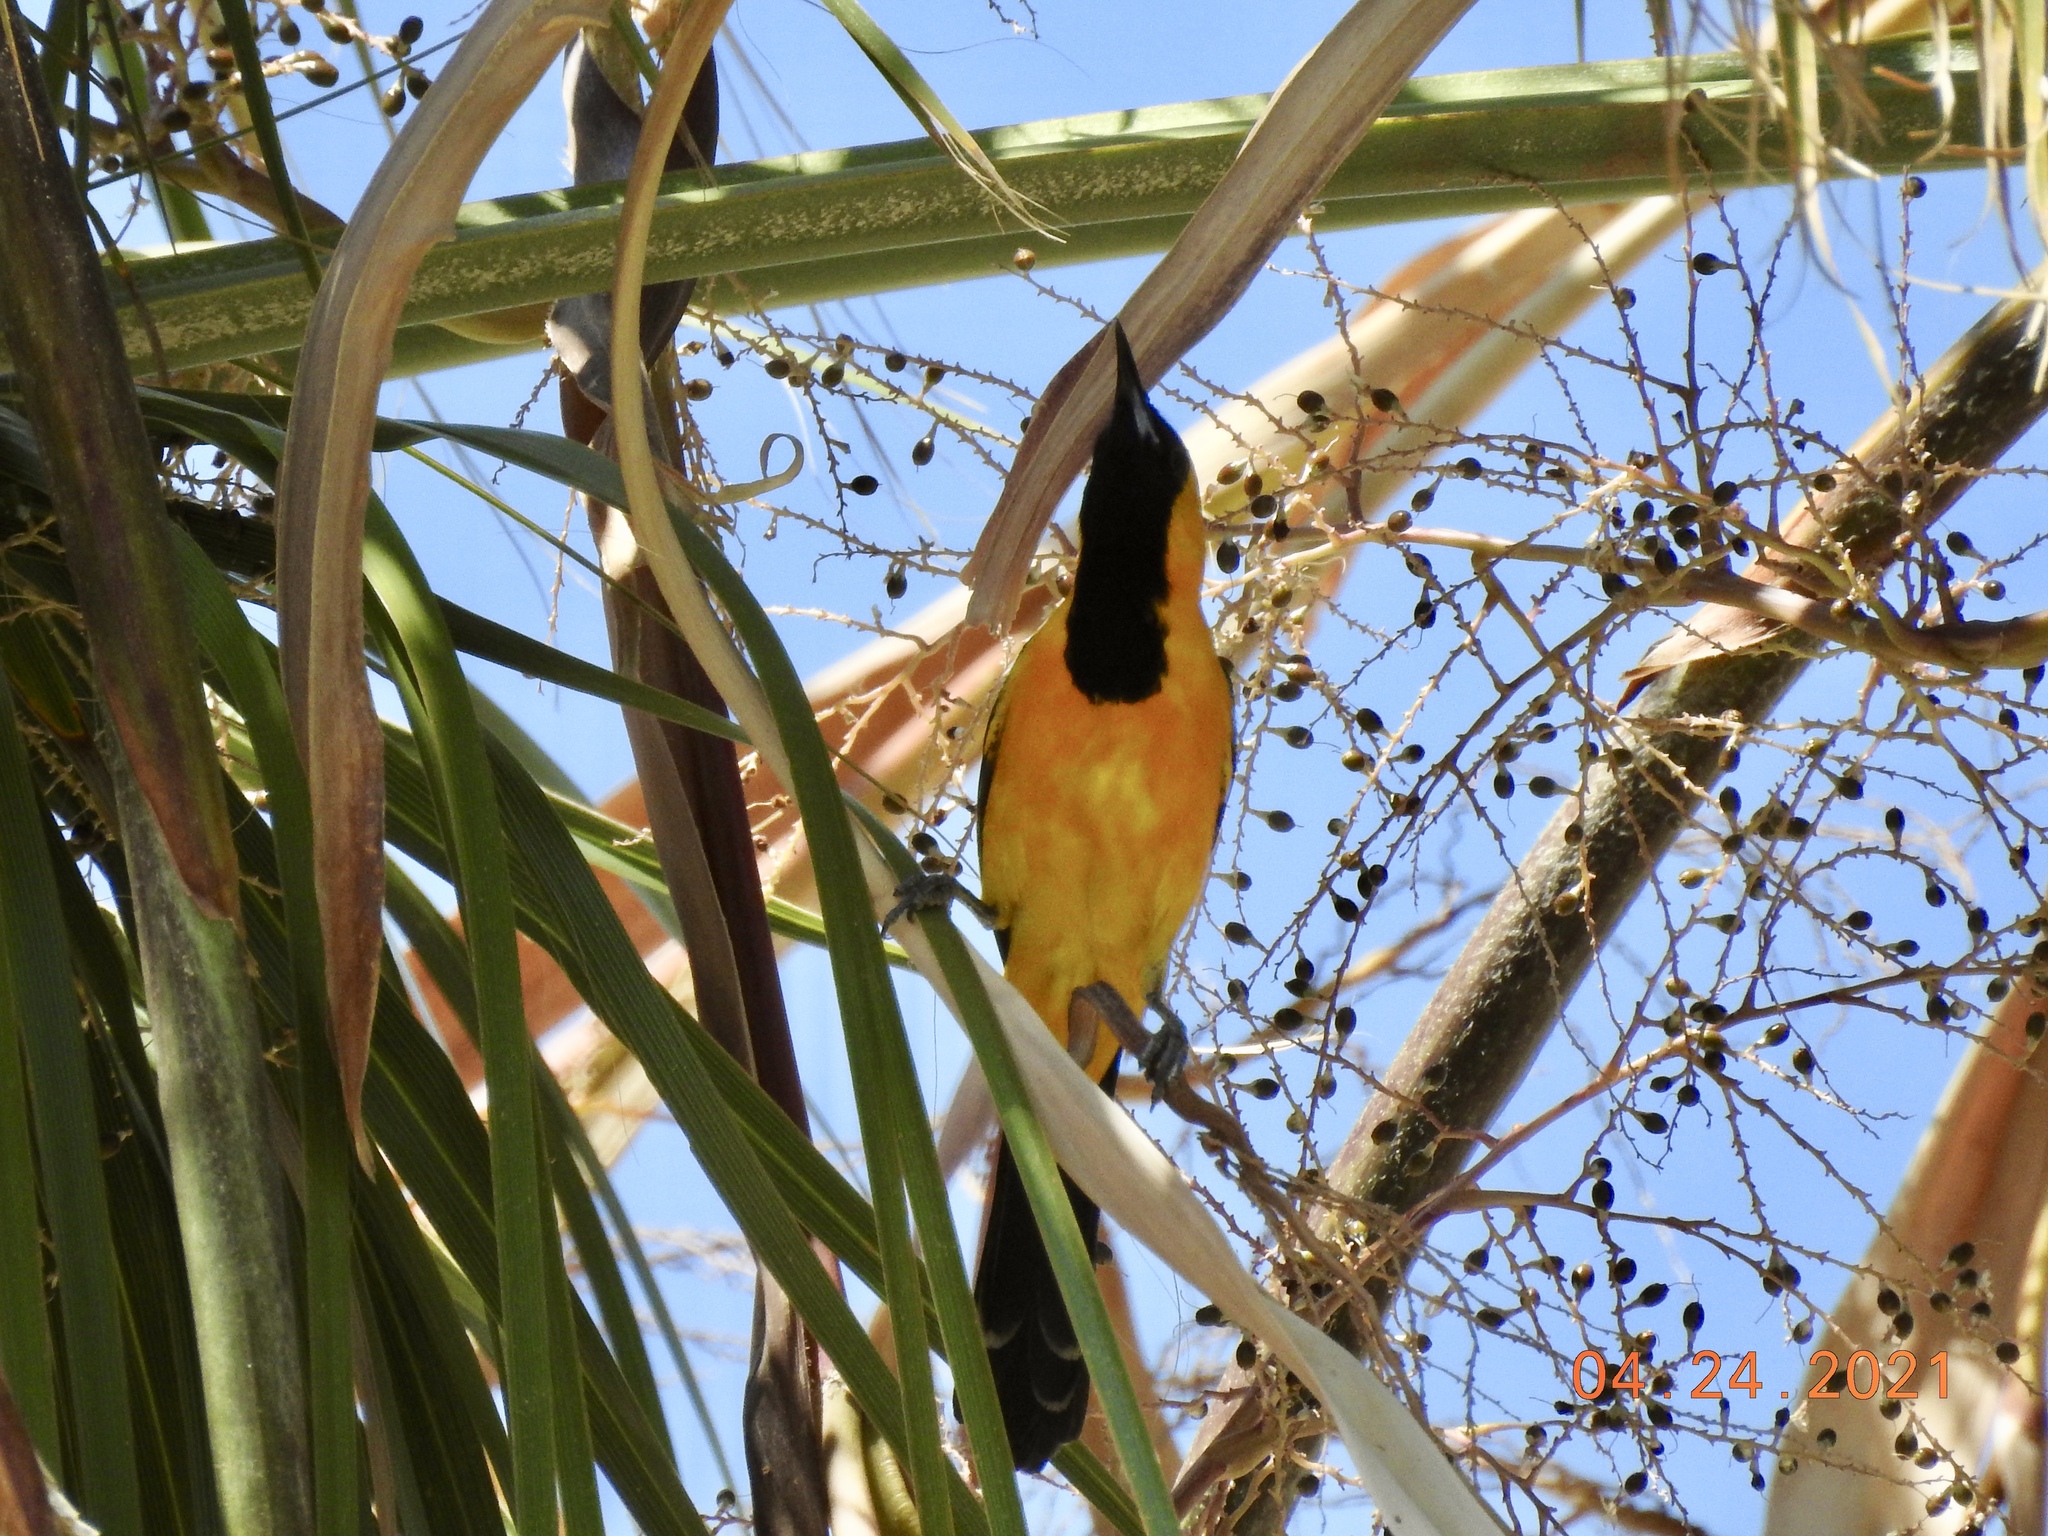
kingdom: Animalia
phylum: Chordata
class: Aves
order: Passeriformes
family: Icteridae
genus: Icterus
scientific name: Icterus cucullatus
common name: Hooded oriole
